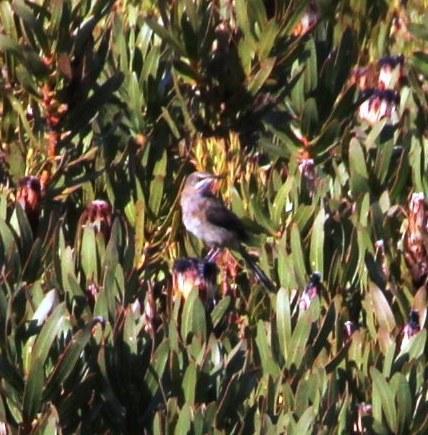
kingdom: Animalia
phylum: Chordata
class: Aves
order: Passeriformes
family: Promeropidae
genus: Promerops
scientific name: Promerops cafer
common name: Cape sugarbird
